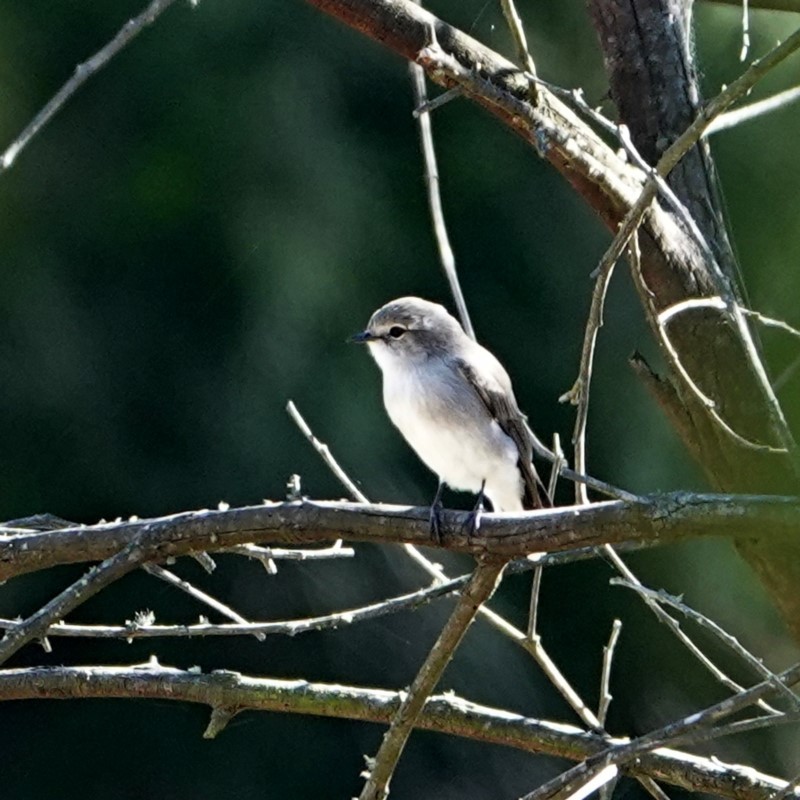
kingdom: Animalia
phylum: Chordata
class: Aves
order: Passeriformes
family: Petroicidae
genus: Microeca
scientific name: Microeca fascinans
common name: Jacky winter
